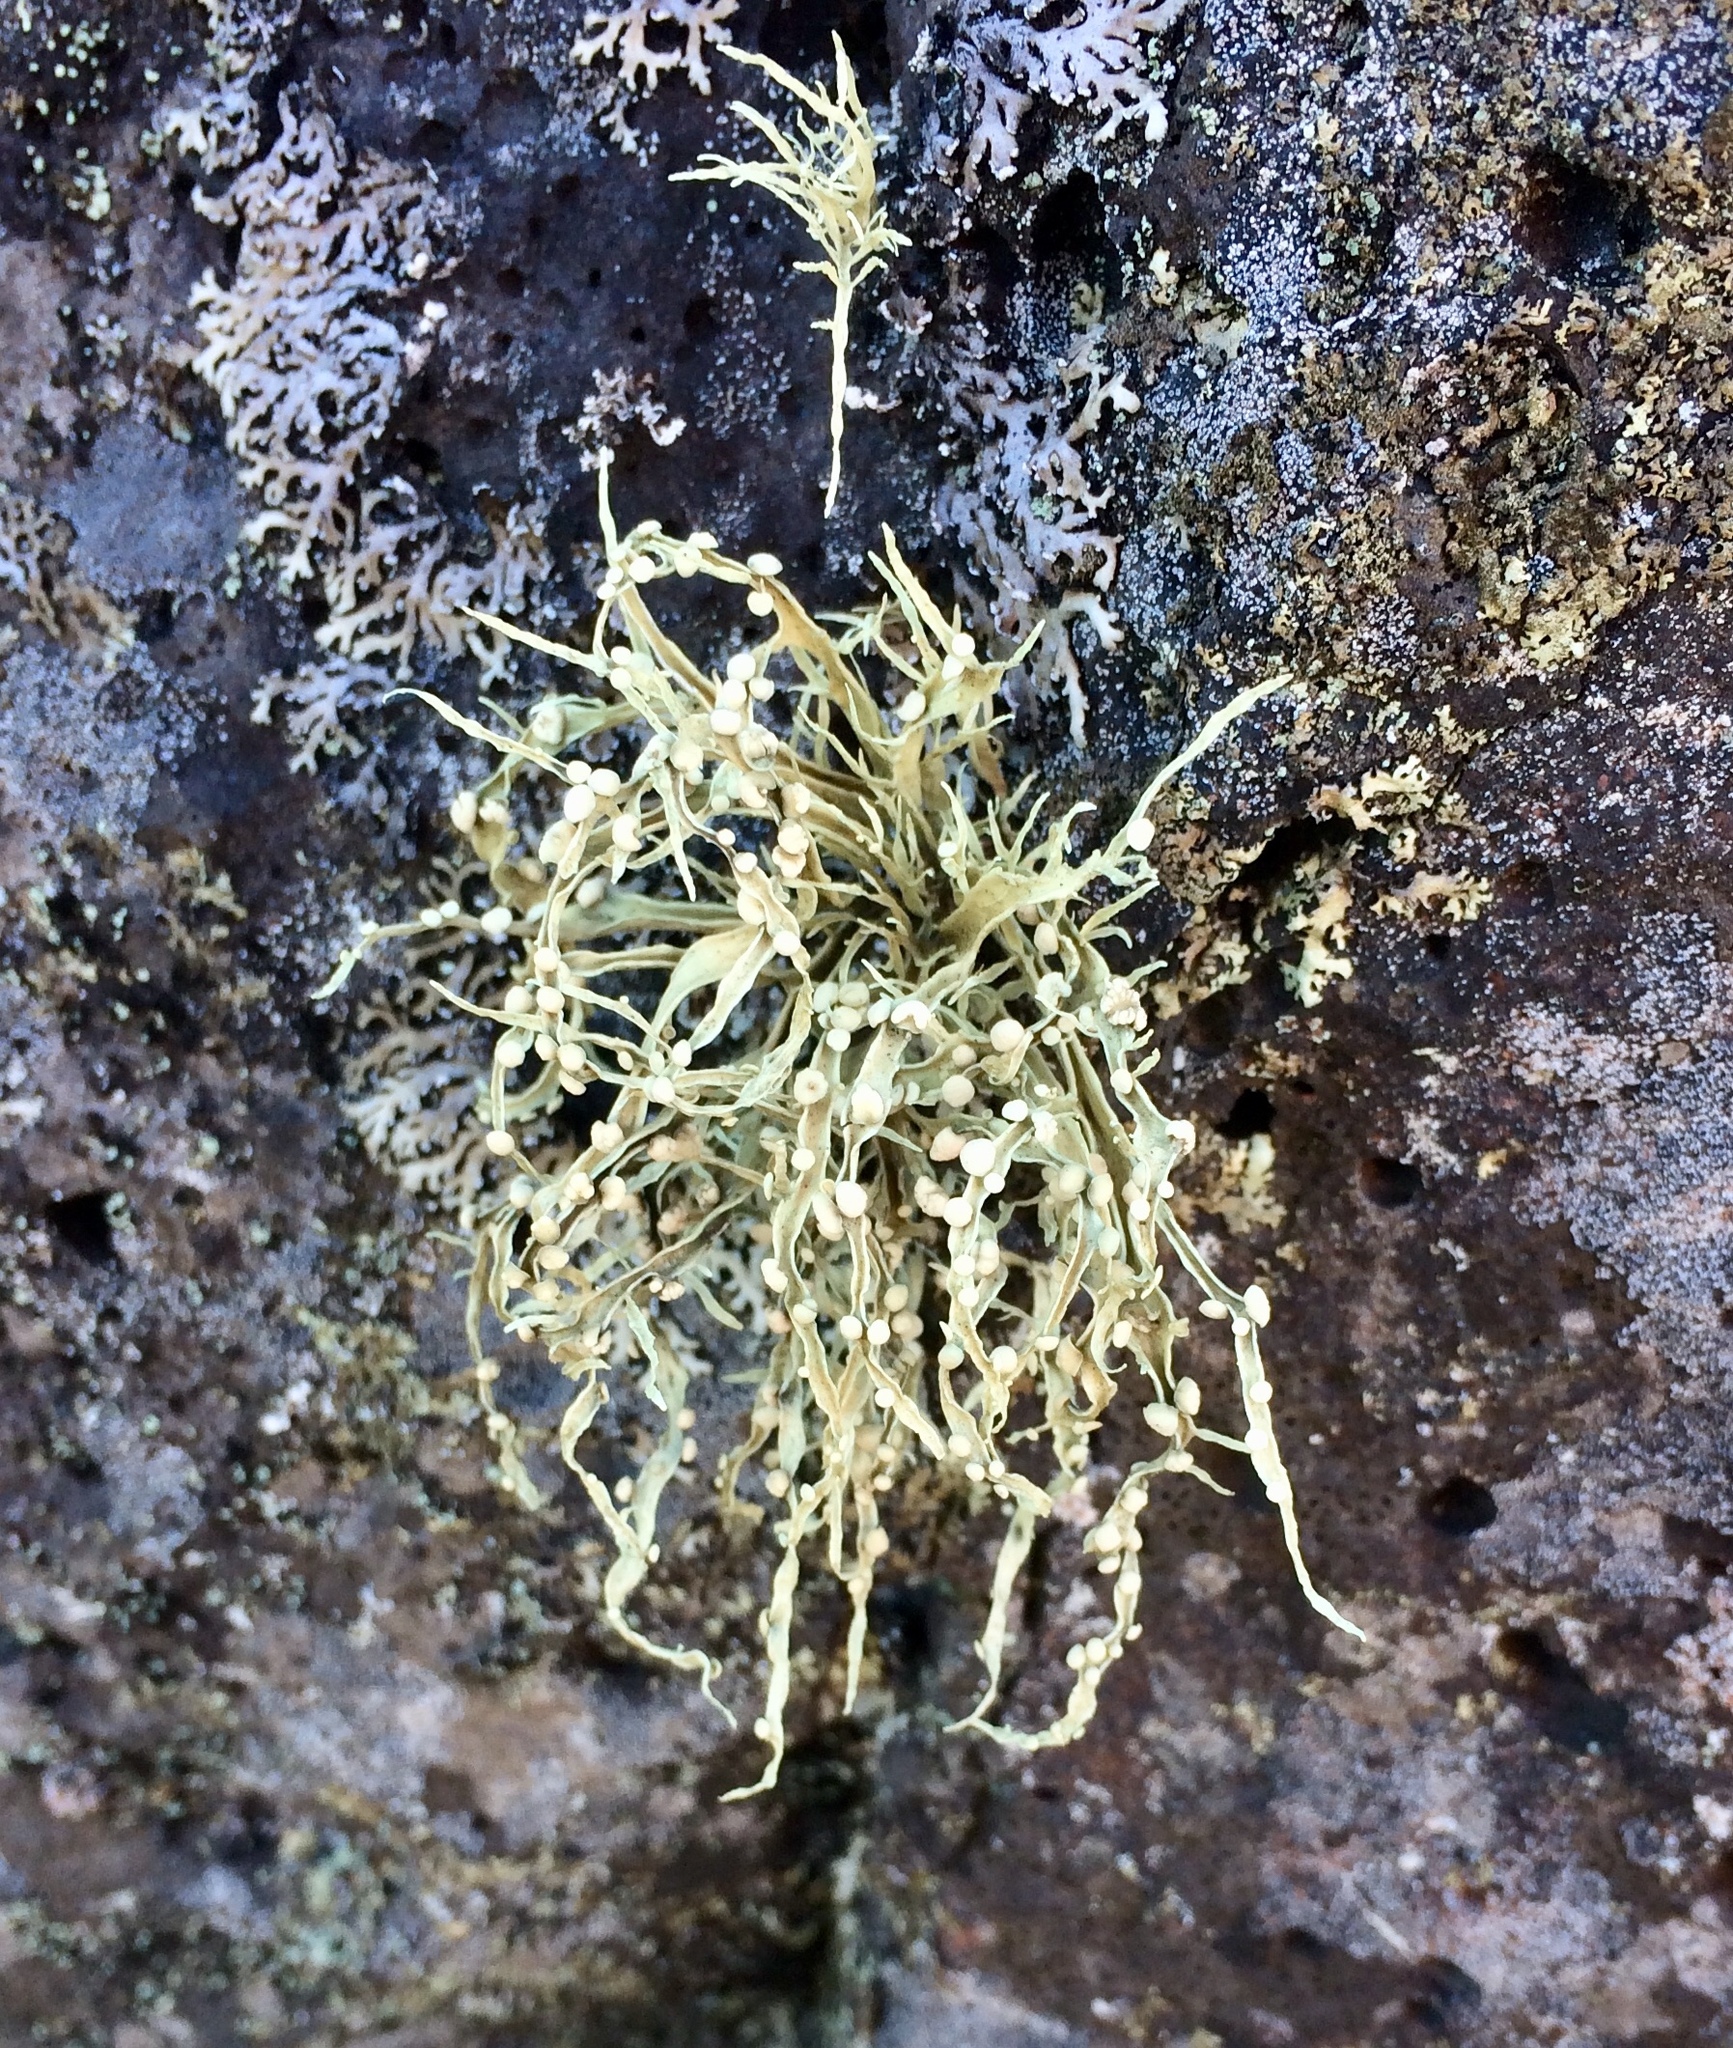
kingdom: Fungi
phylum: Ascomycota
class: Lecanoromycetes
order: Lecanorales
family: Ramalinaceae
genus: Ramalina
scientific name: Ramalina celastri
